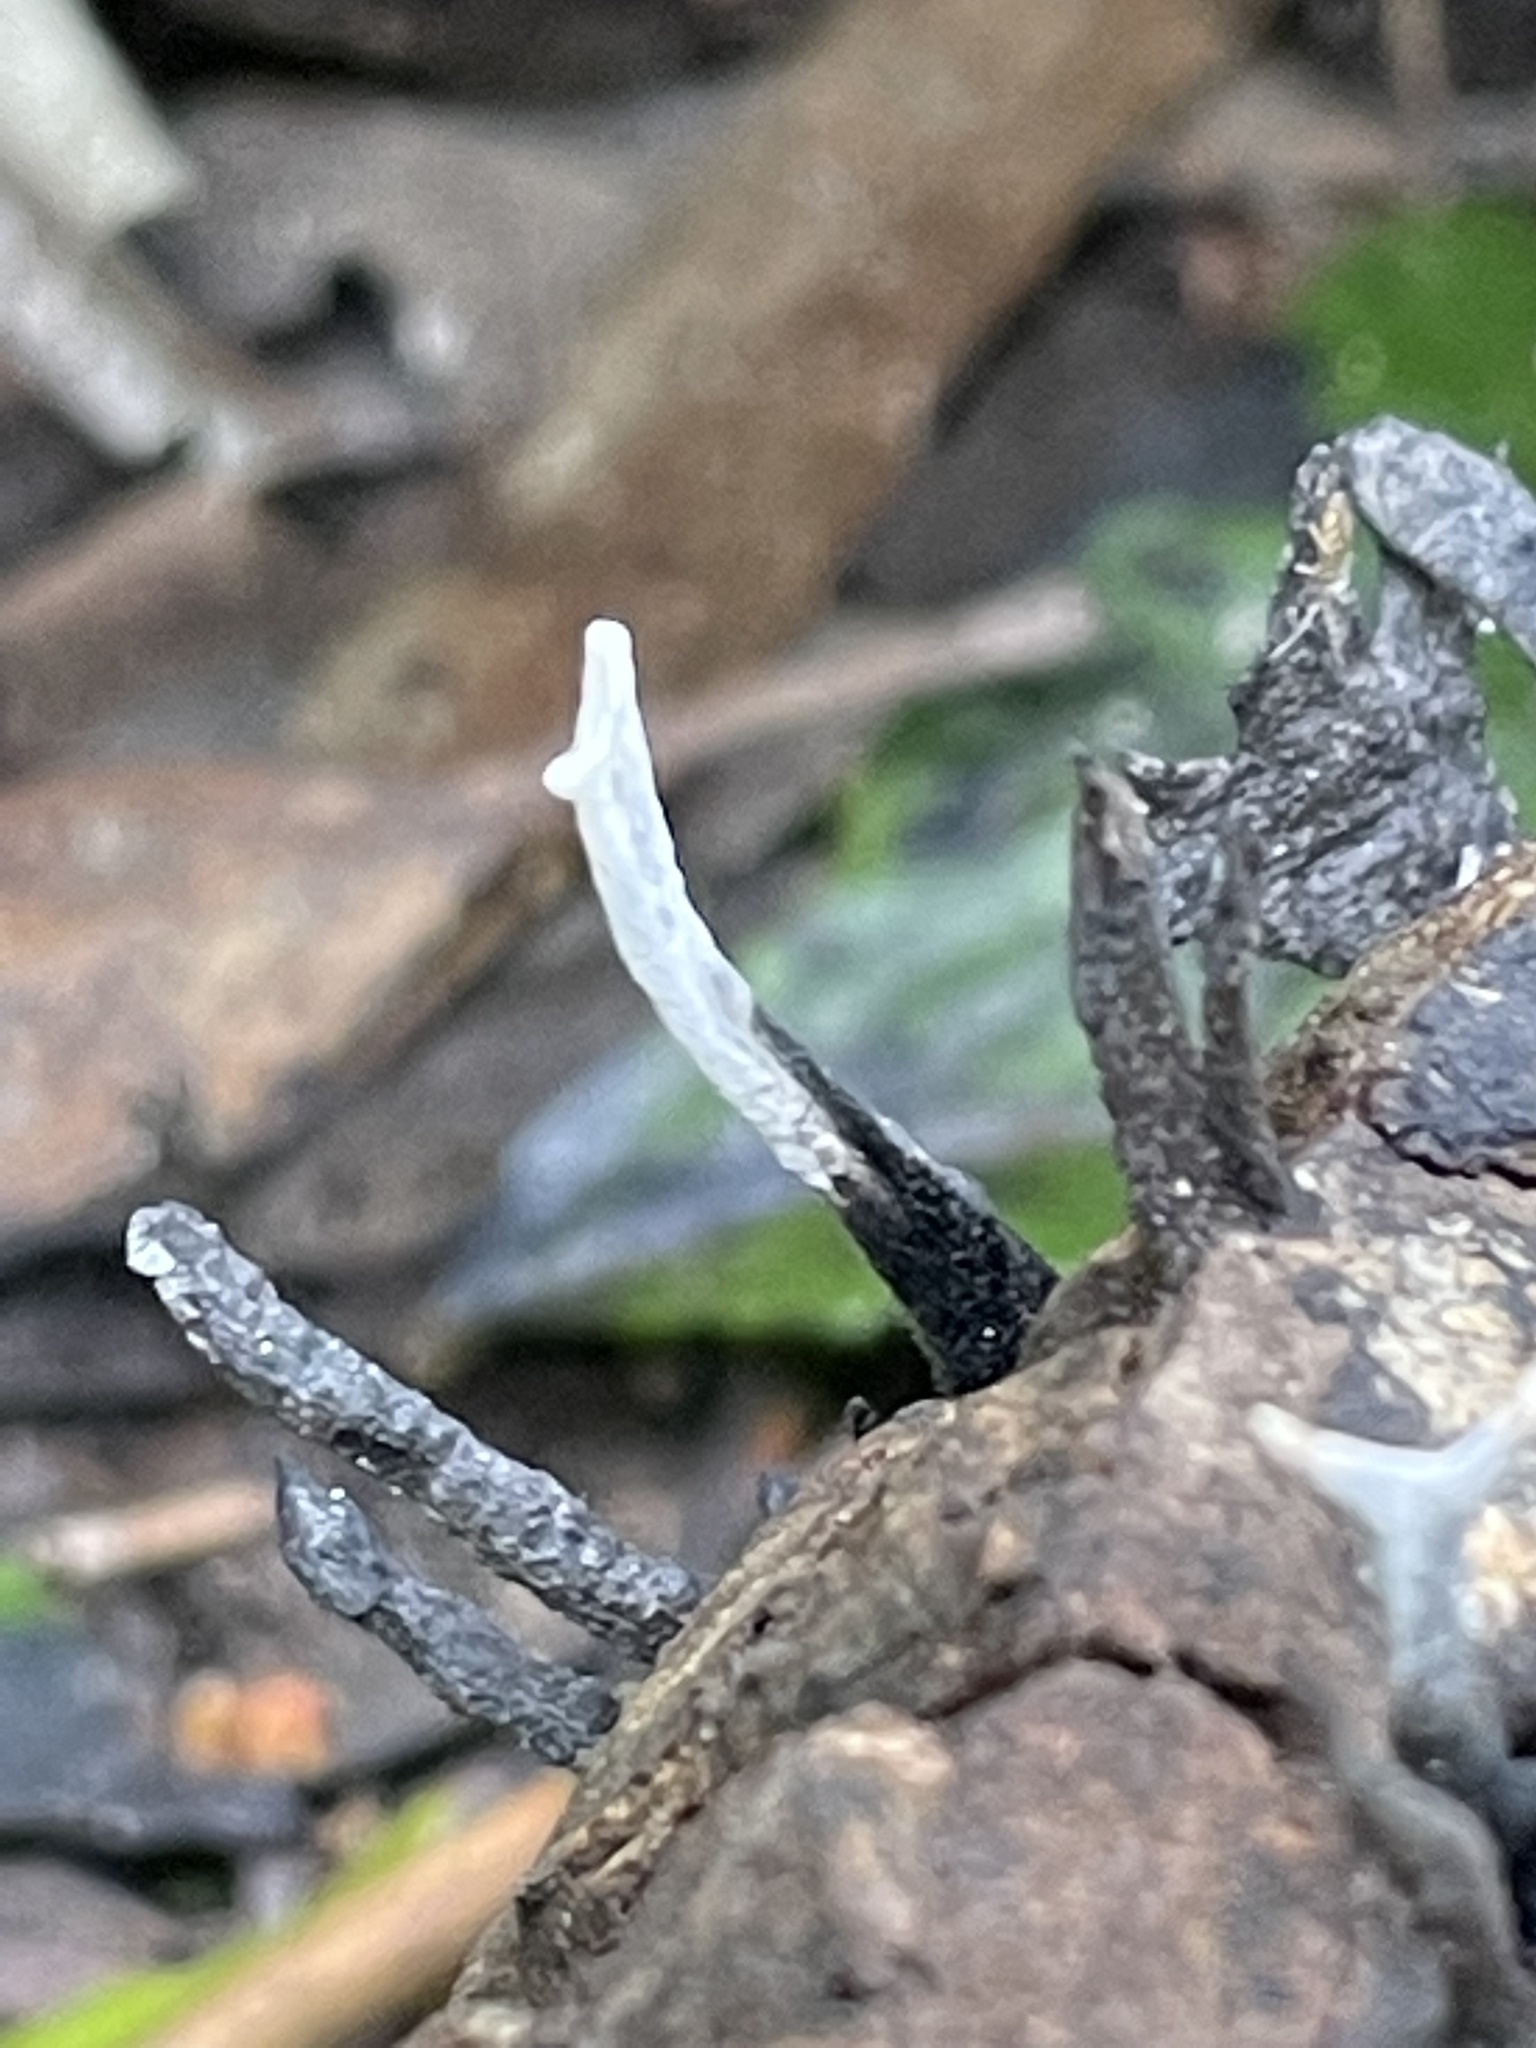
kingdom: Fungi
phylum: Ascomycota
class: Sordariomycetes
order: Xylariales
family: Xylariaceae
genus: Xylaria
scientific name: Xylaria hypoxylon
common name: Candle-snuff fungus
